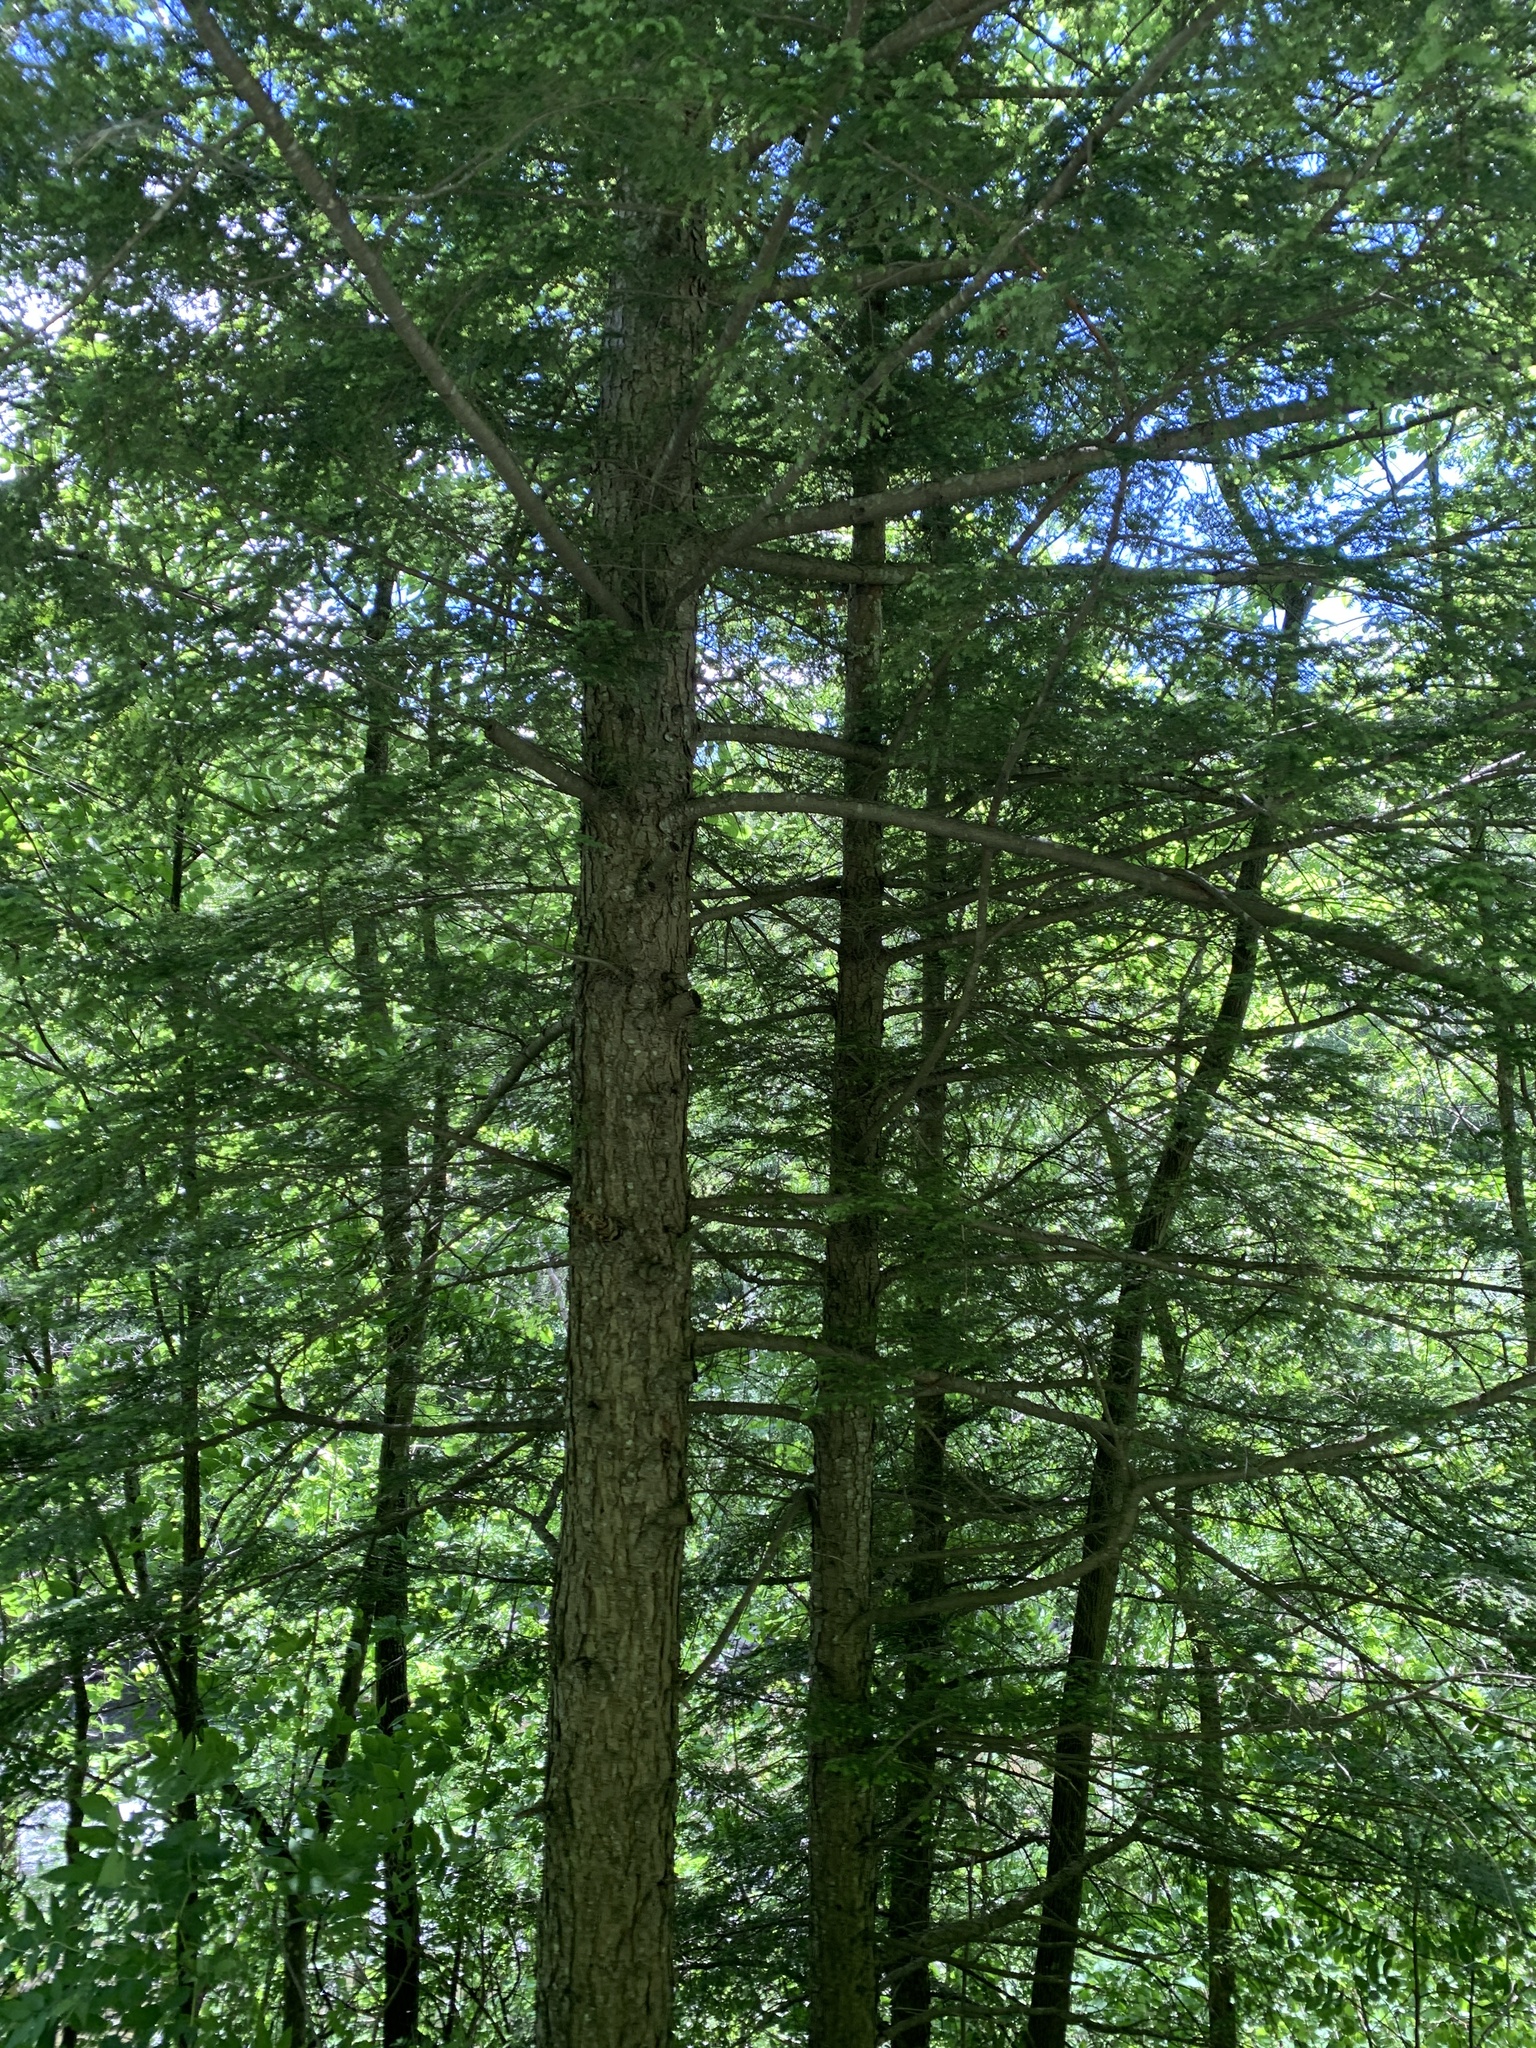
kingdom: Plantae
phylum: Tracheophyta
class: Pinopsida
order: Pinales
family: Pinaceae
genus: Tsuga
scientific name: Tsuga canadensis
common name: Eastern hemlock
